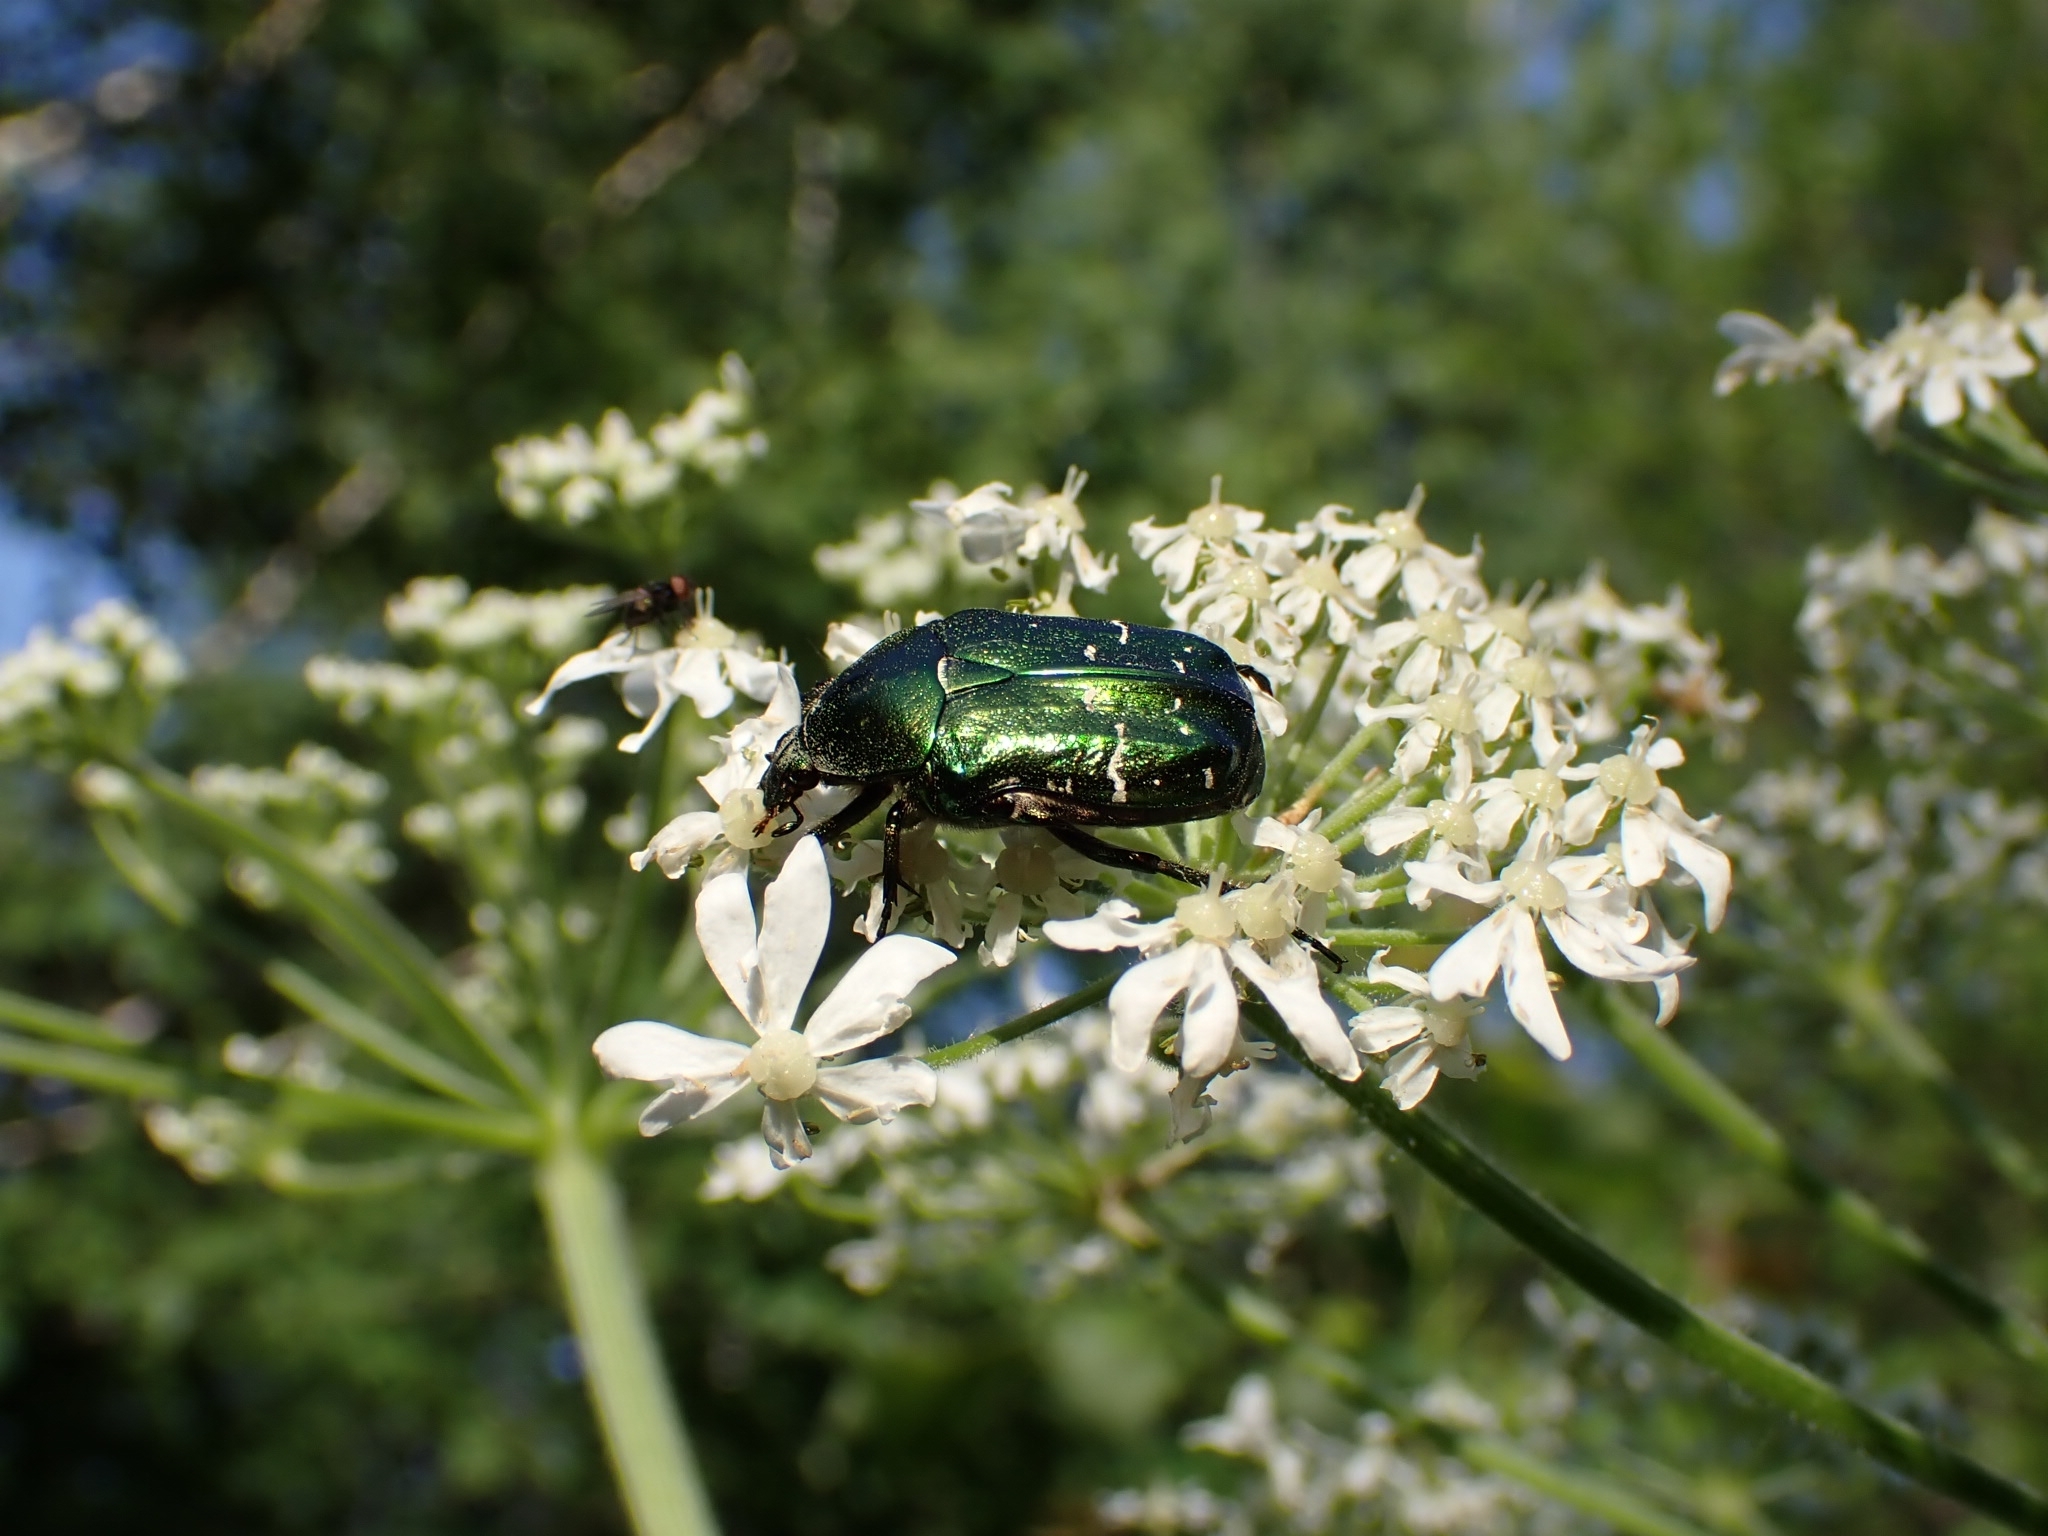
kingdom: Animalia
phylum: Arthropoda
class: Insecta
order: Coleoptera
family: Scarabaeidae
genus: Cetonia
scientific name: Cetonia aurata
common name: Rose chafer
